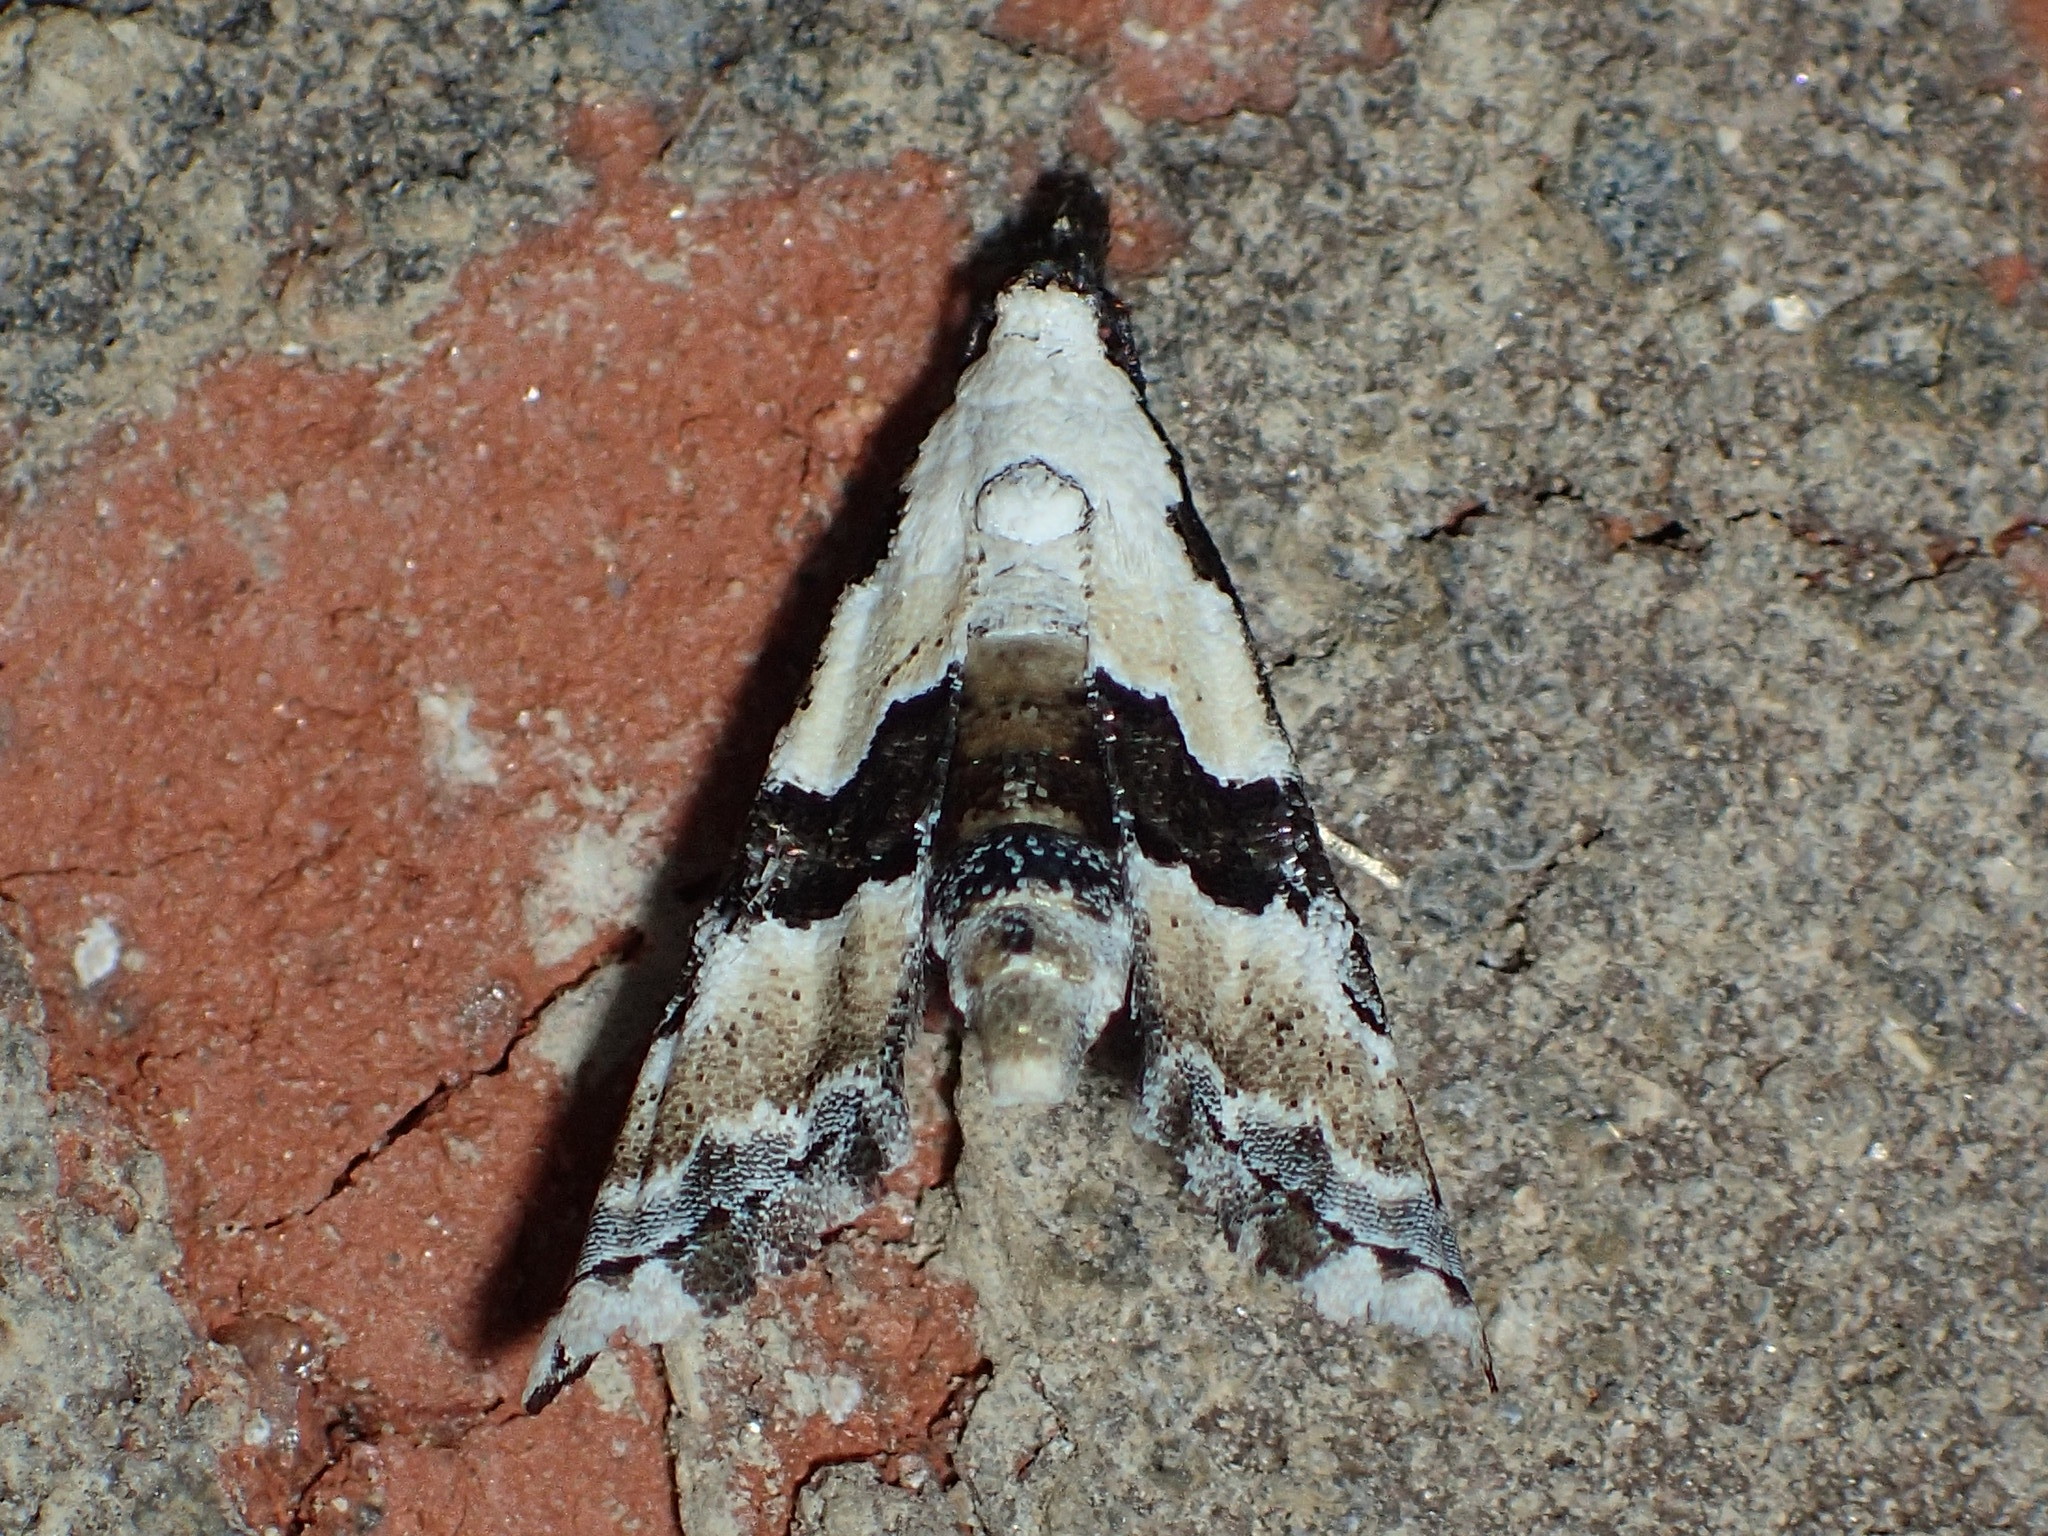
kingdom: Animalia
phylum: Arthropoda
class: Insecta
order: Lepidoptera
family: Noctuidae
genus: Nigetia
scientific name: Nigetia formosalis
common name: Thin-winged owlet
